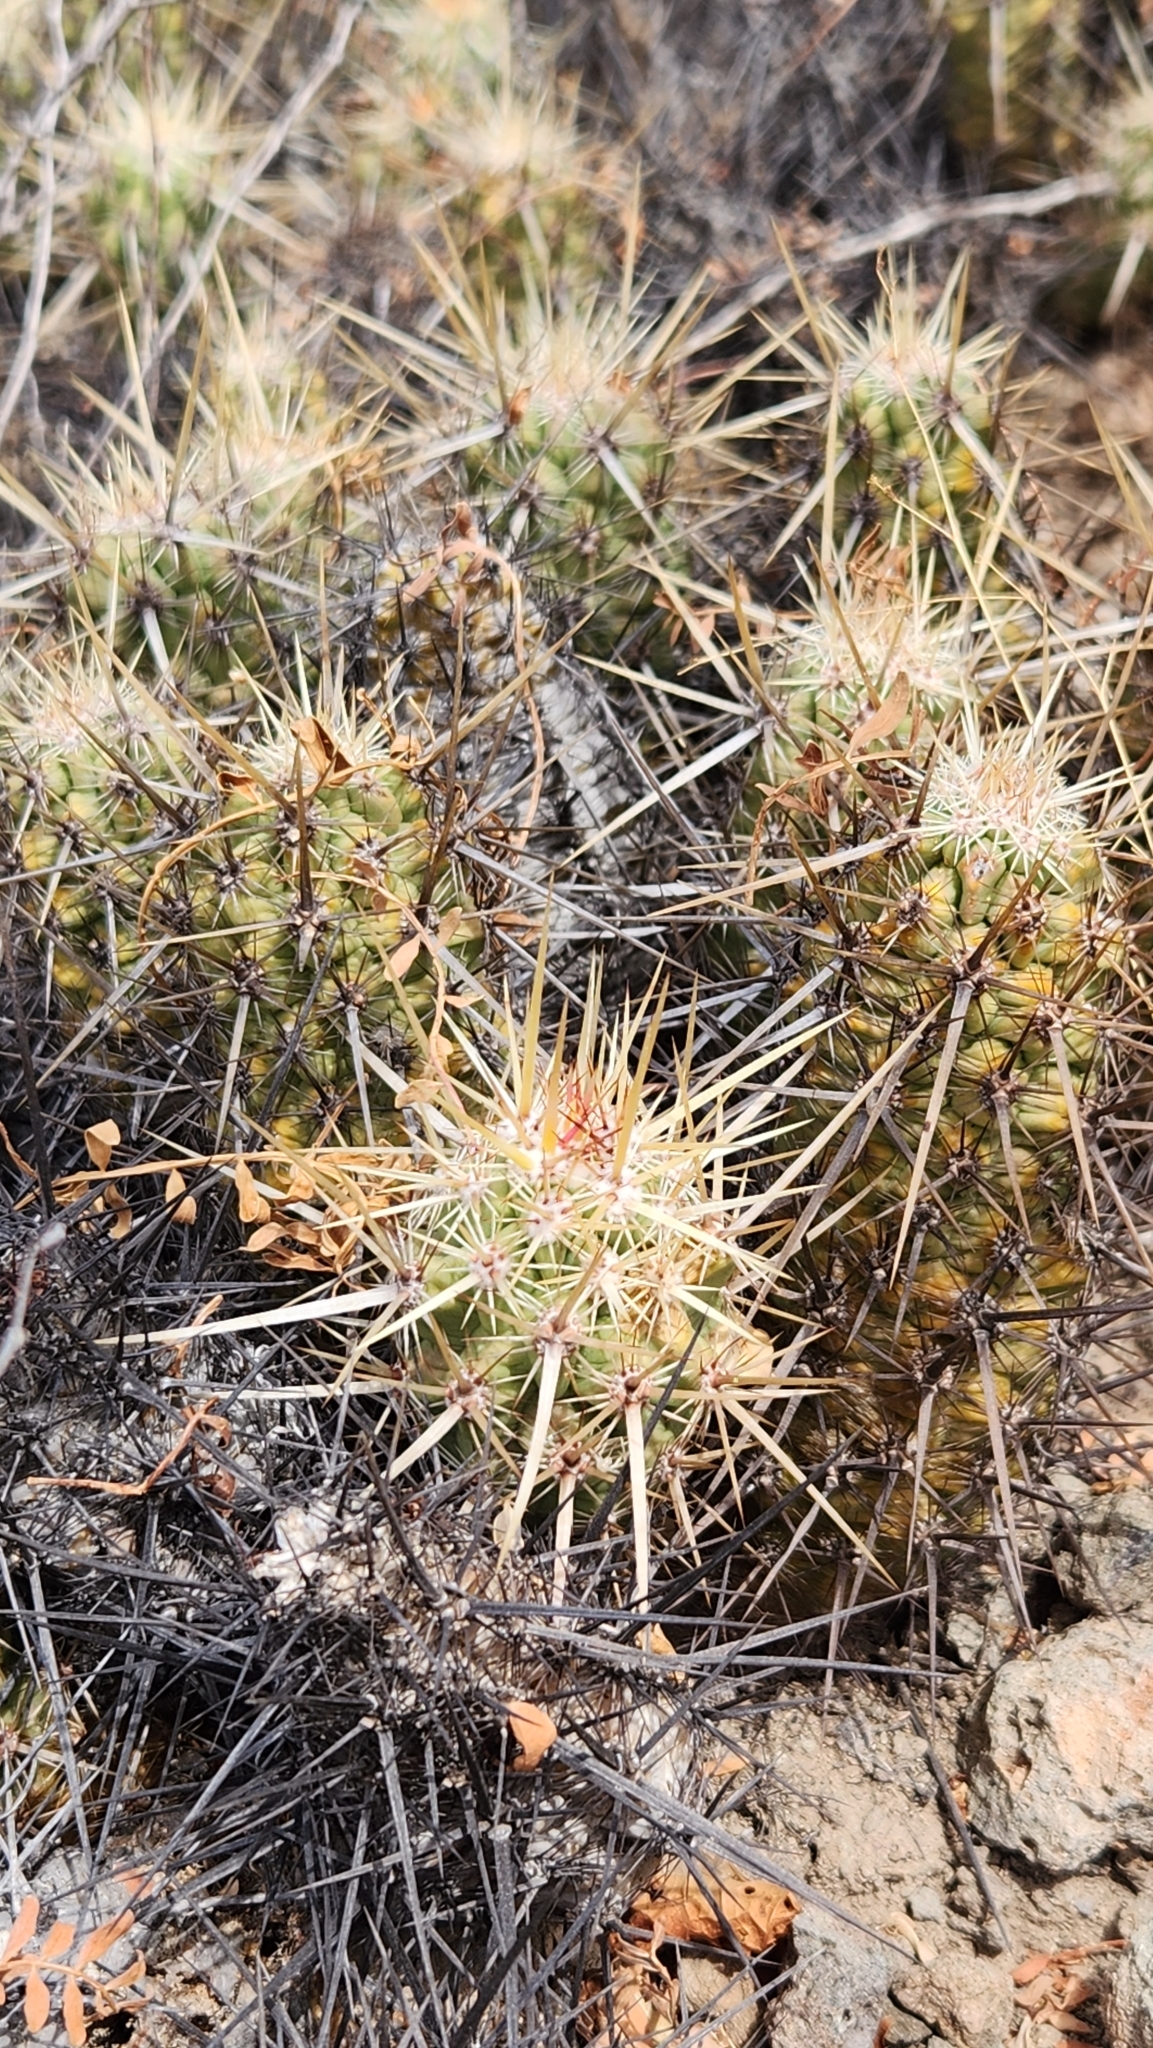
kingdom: Plantae
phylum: Tracheophyta
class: Magnoliopsida
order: Caryophyllales
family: Cactaceae
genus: Echinocereus
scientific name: Echinocereus brandegeei
